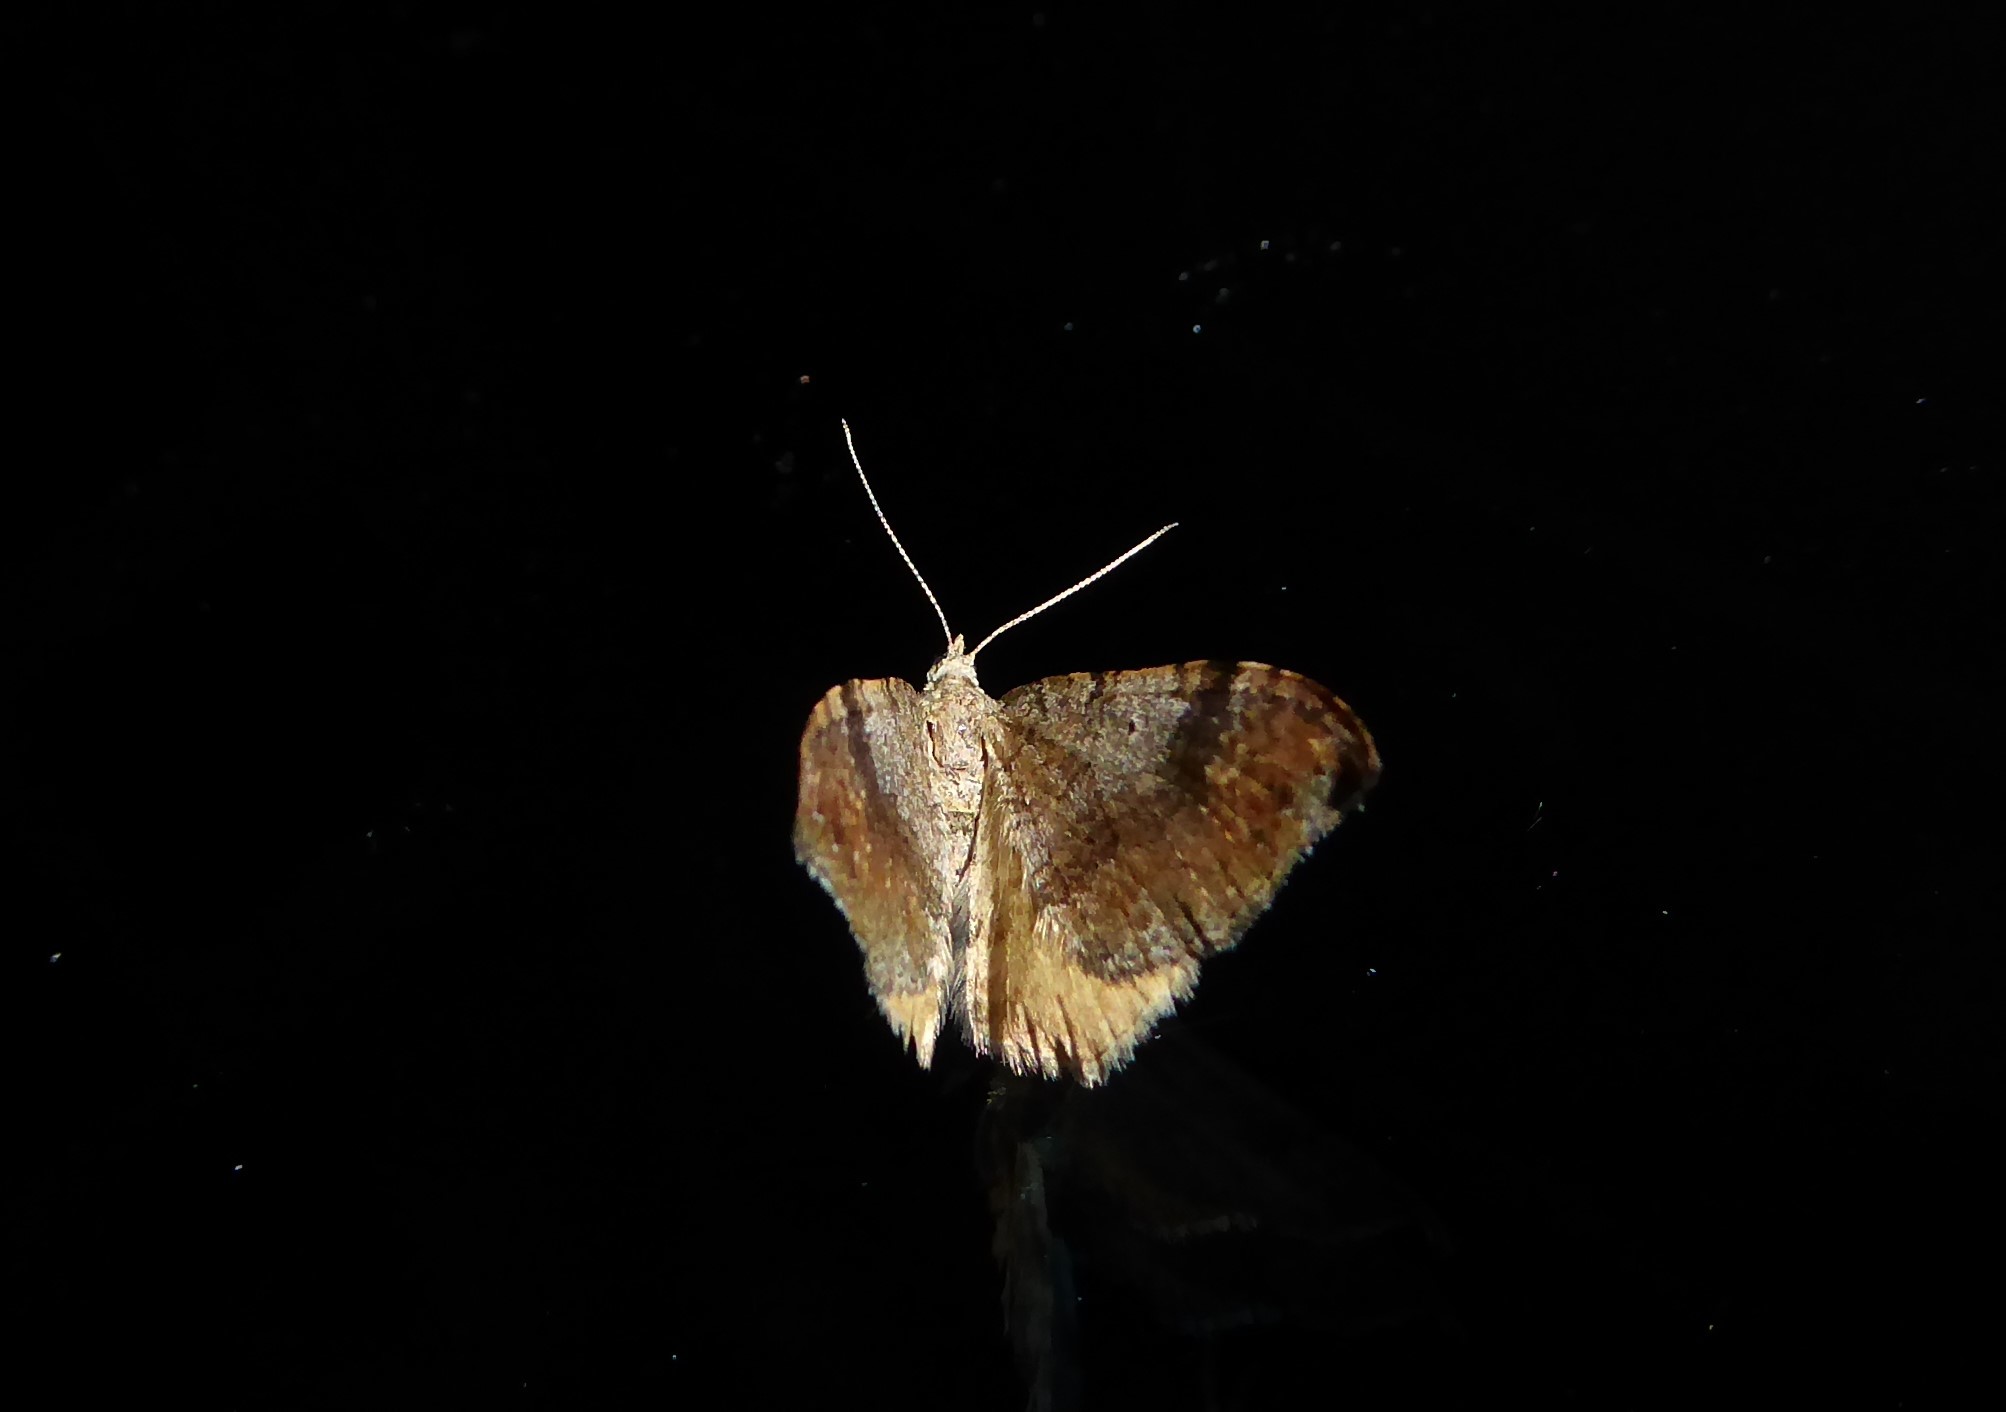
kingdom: Animalia
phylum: Arthropoda
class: Insecta
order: Lepidoptera
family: Geometridae
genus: Homodotis
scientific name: Homodotis megaspilata
